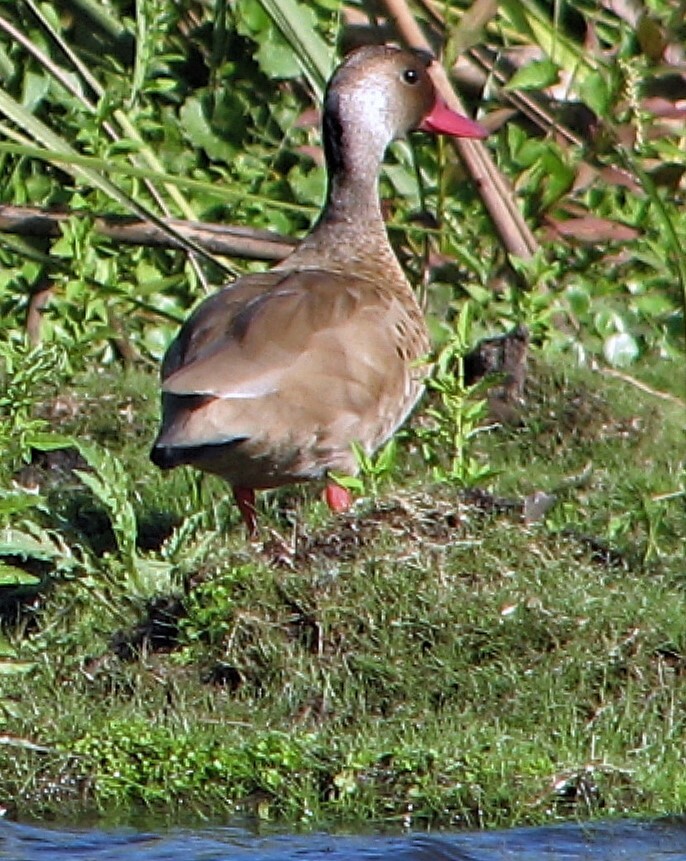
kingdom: Animalia
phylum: Chordata
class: Aves
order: Anseriformes
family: Anatidae
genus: Amazonetta
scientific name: Amazonetta brasiliensis
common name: Brazilian teal
